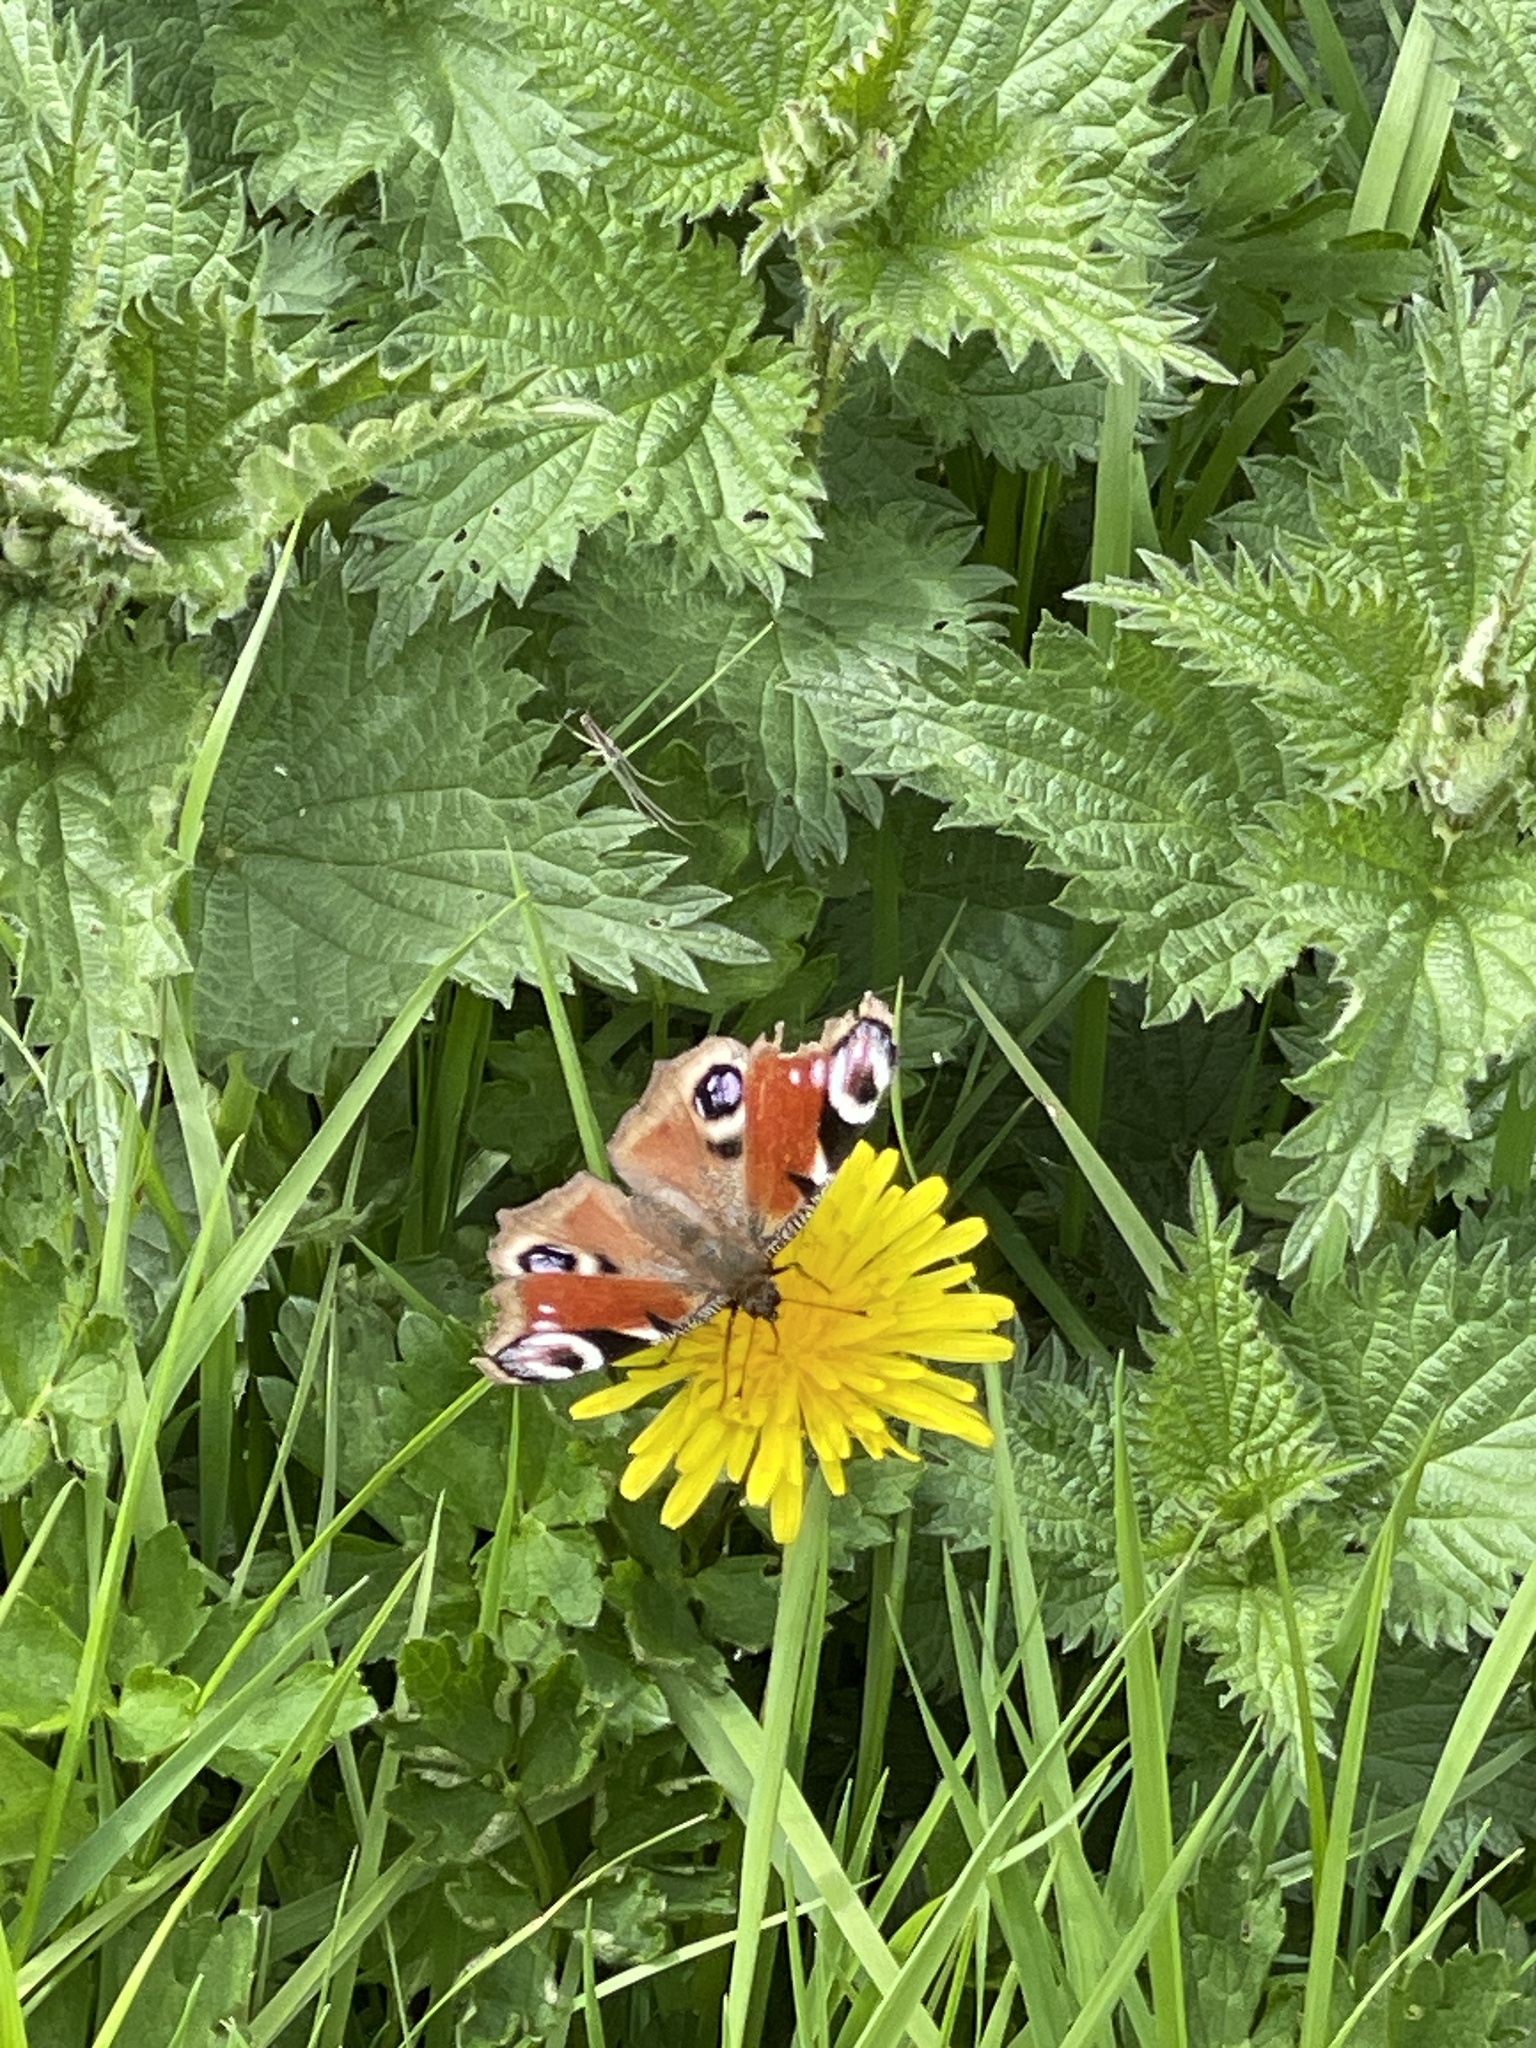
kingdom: Animalia
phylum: Arthropoda
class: Insecta
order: Lepidoptera
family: Nymphalidae
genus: Aglais
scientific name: Aglais io
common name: Peacock
